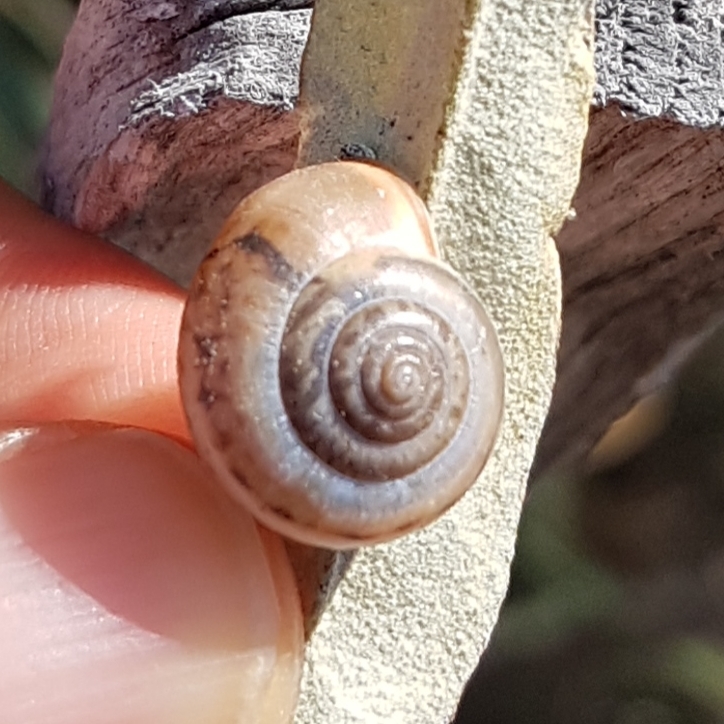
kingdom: Animalia
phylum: Mollusca
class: Gastropoda
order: Stylommatophora
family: Hygromiidae
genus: Monacha
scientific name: Monacha cartusiana
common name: Carthusian snail
